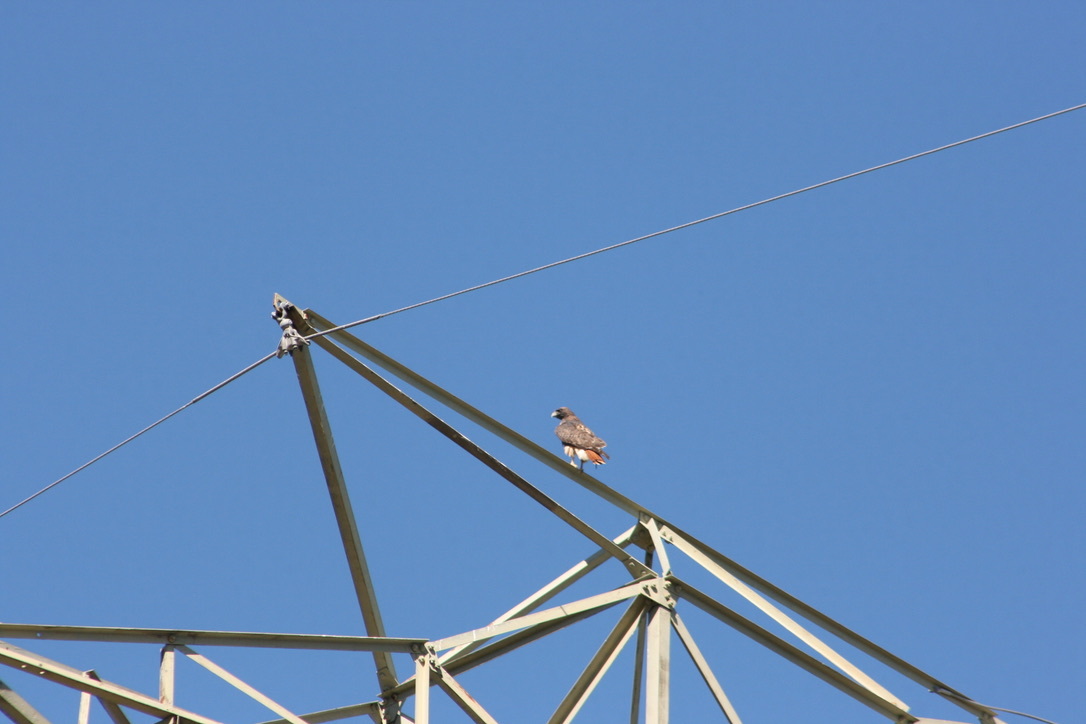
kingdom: Animalia
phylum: Chordata
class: Aves
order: Accipitriformes
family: Accipitridae
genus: Buteo
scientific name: Buteo jamaicensis
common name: Red-tailed hawk
